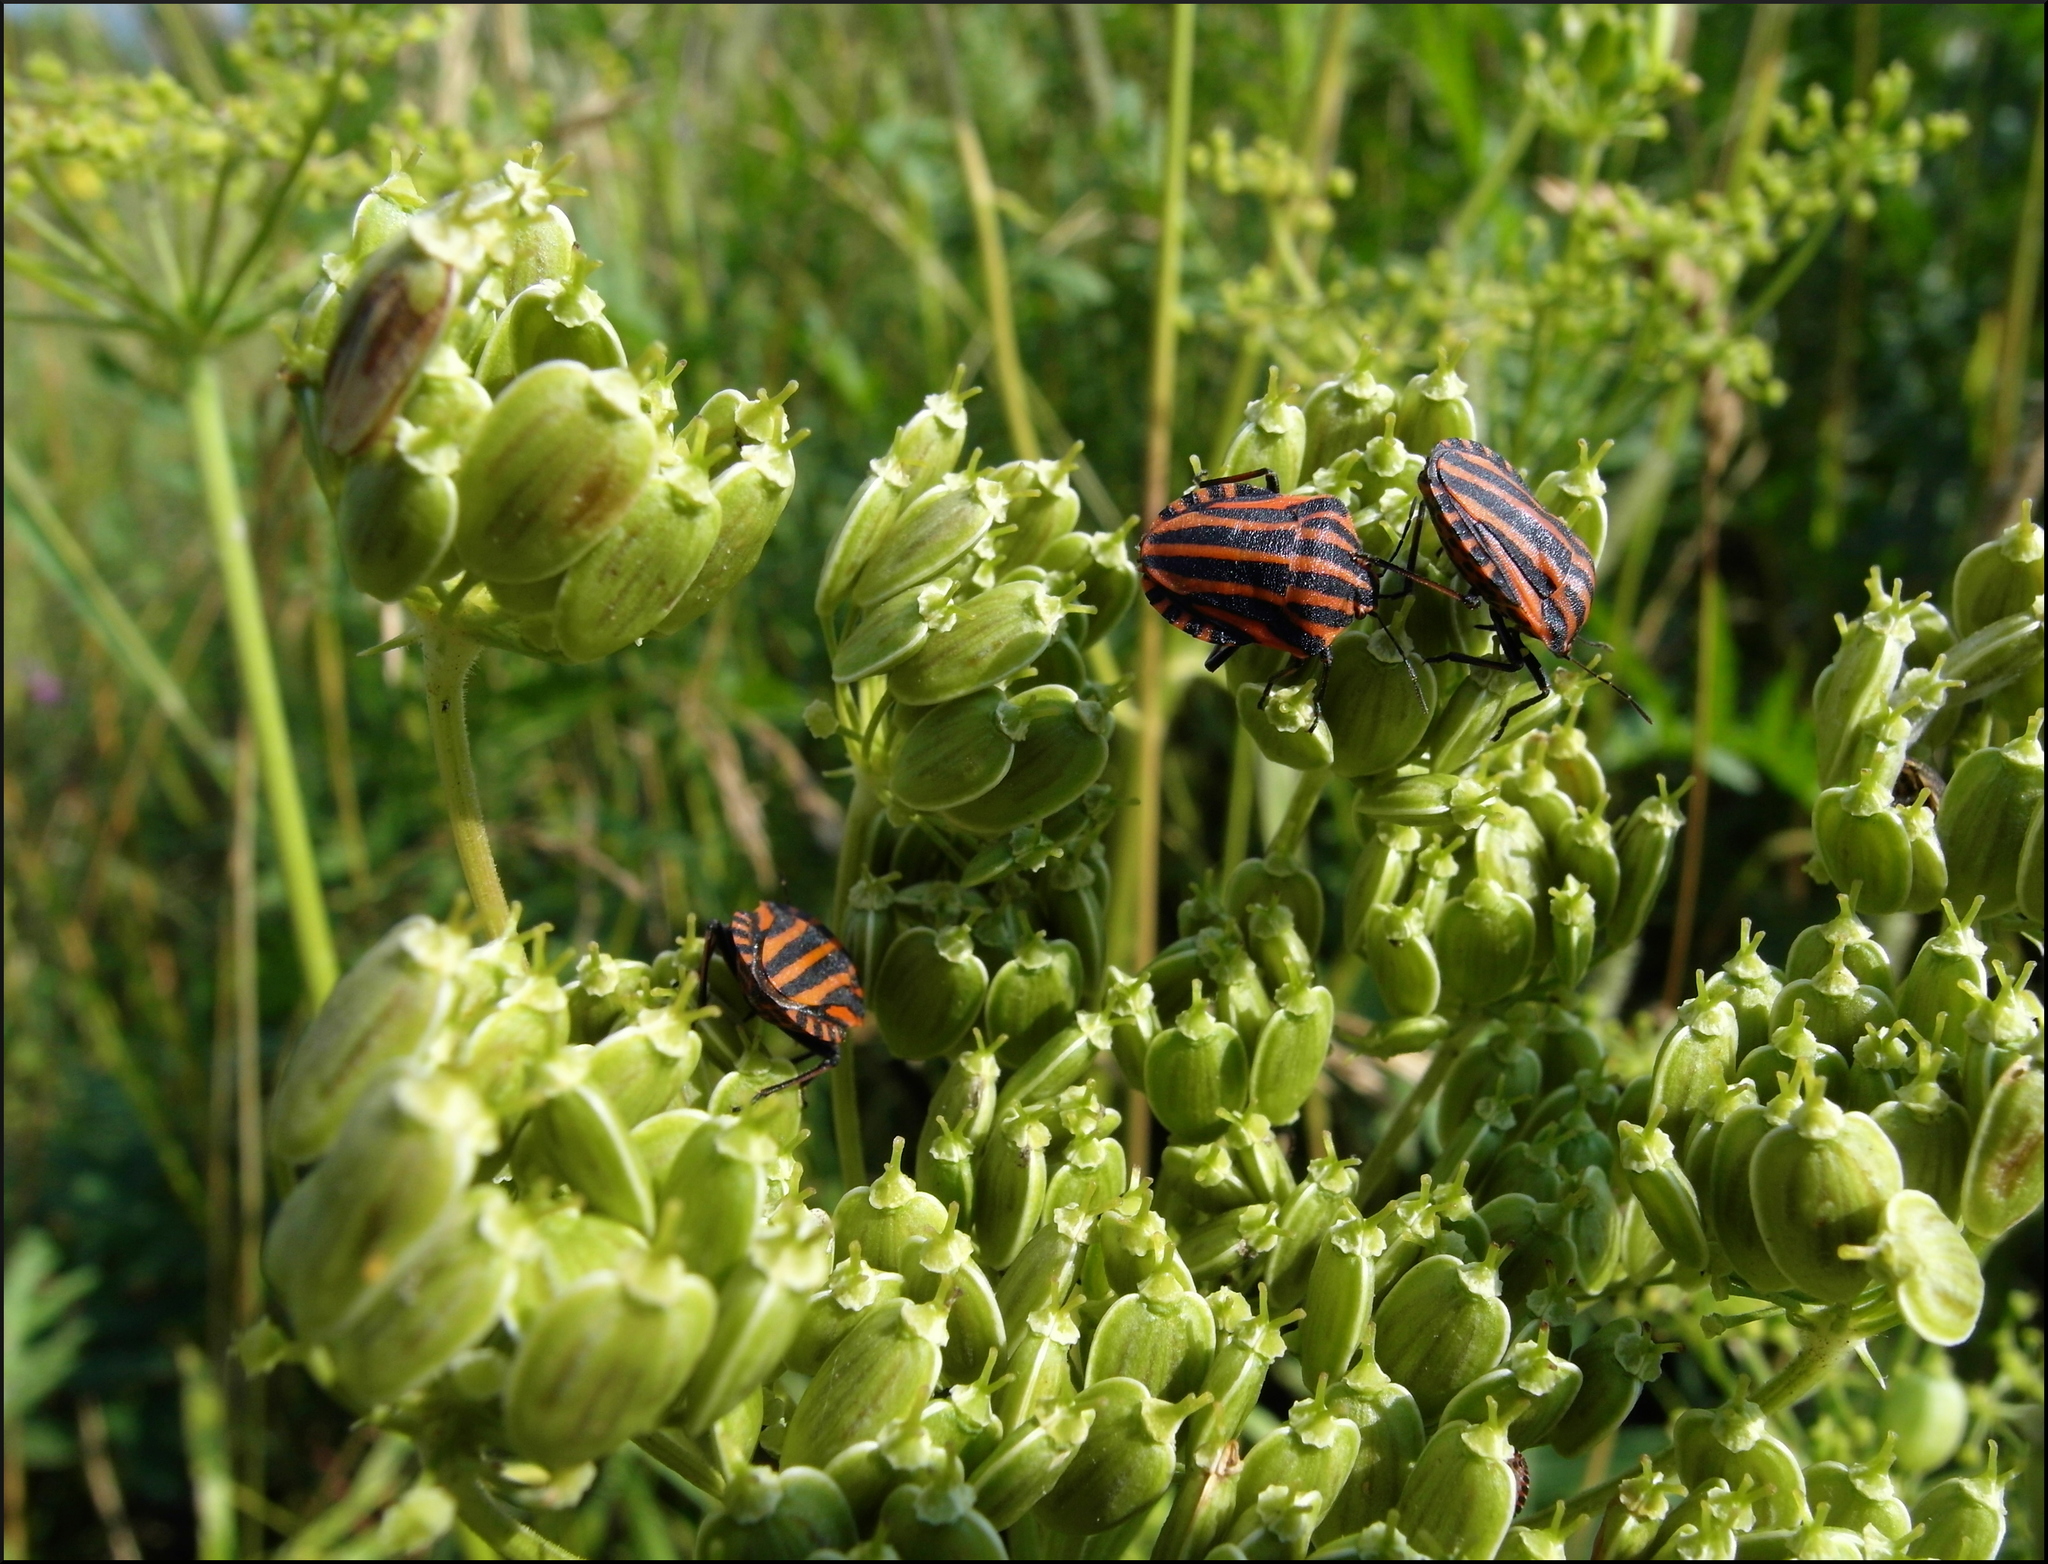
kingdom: Animalia
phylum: Arthropoda
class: Insecta
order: Hemiptera
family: Pentatomidae
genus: Graphosoma
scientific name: Graphosoma italicum
